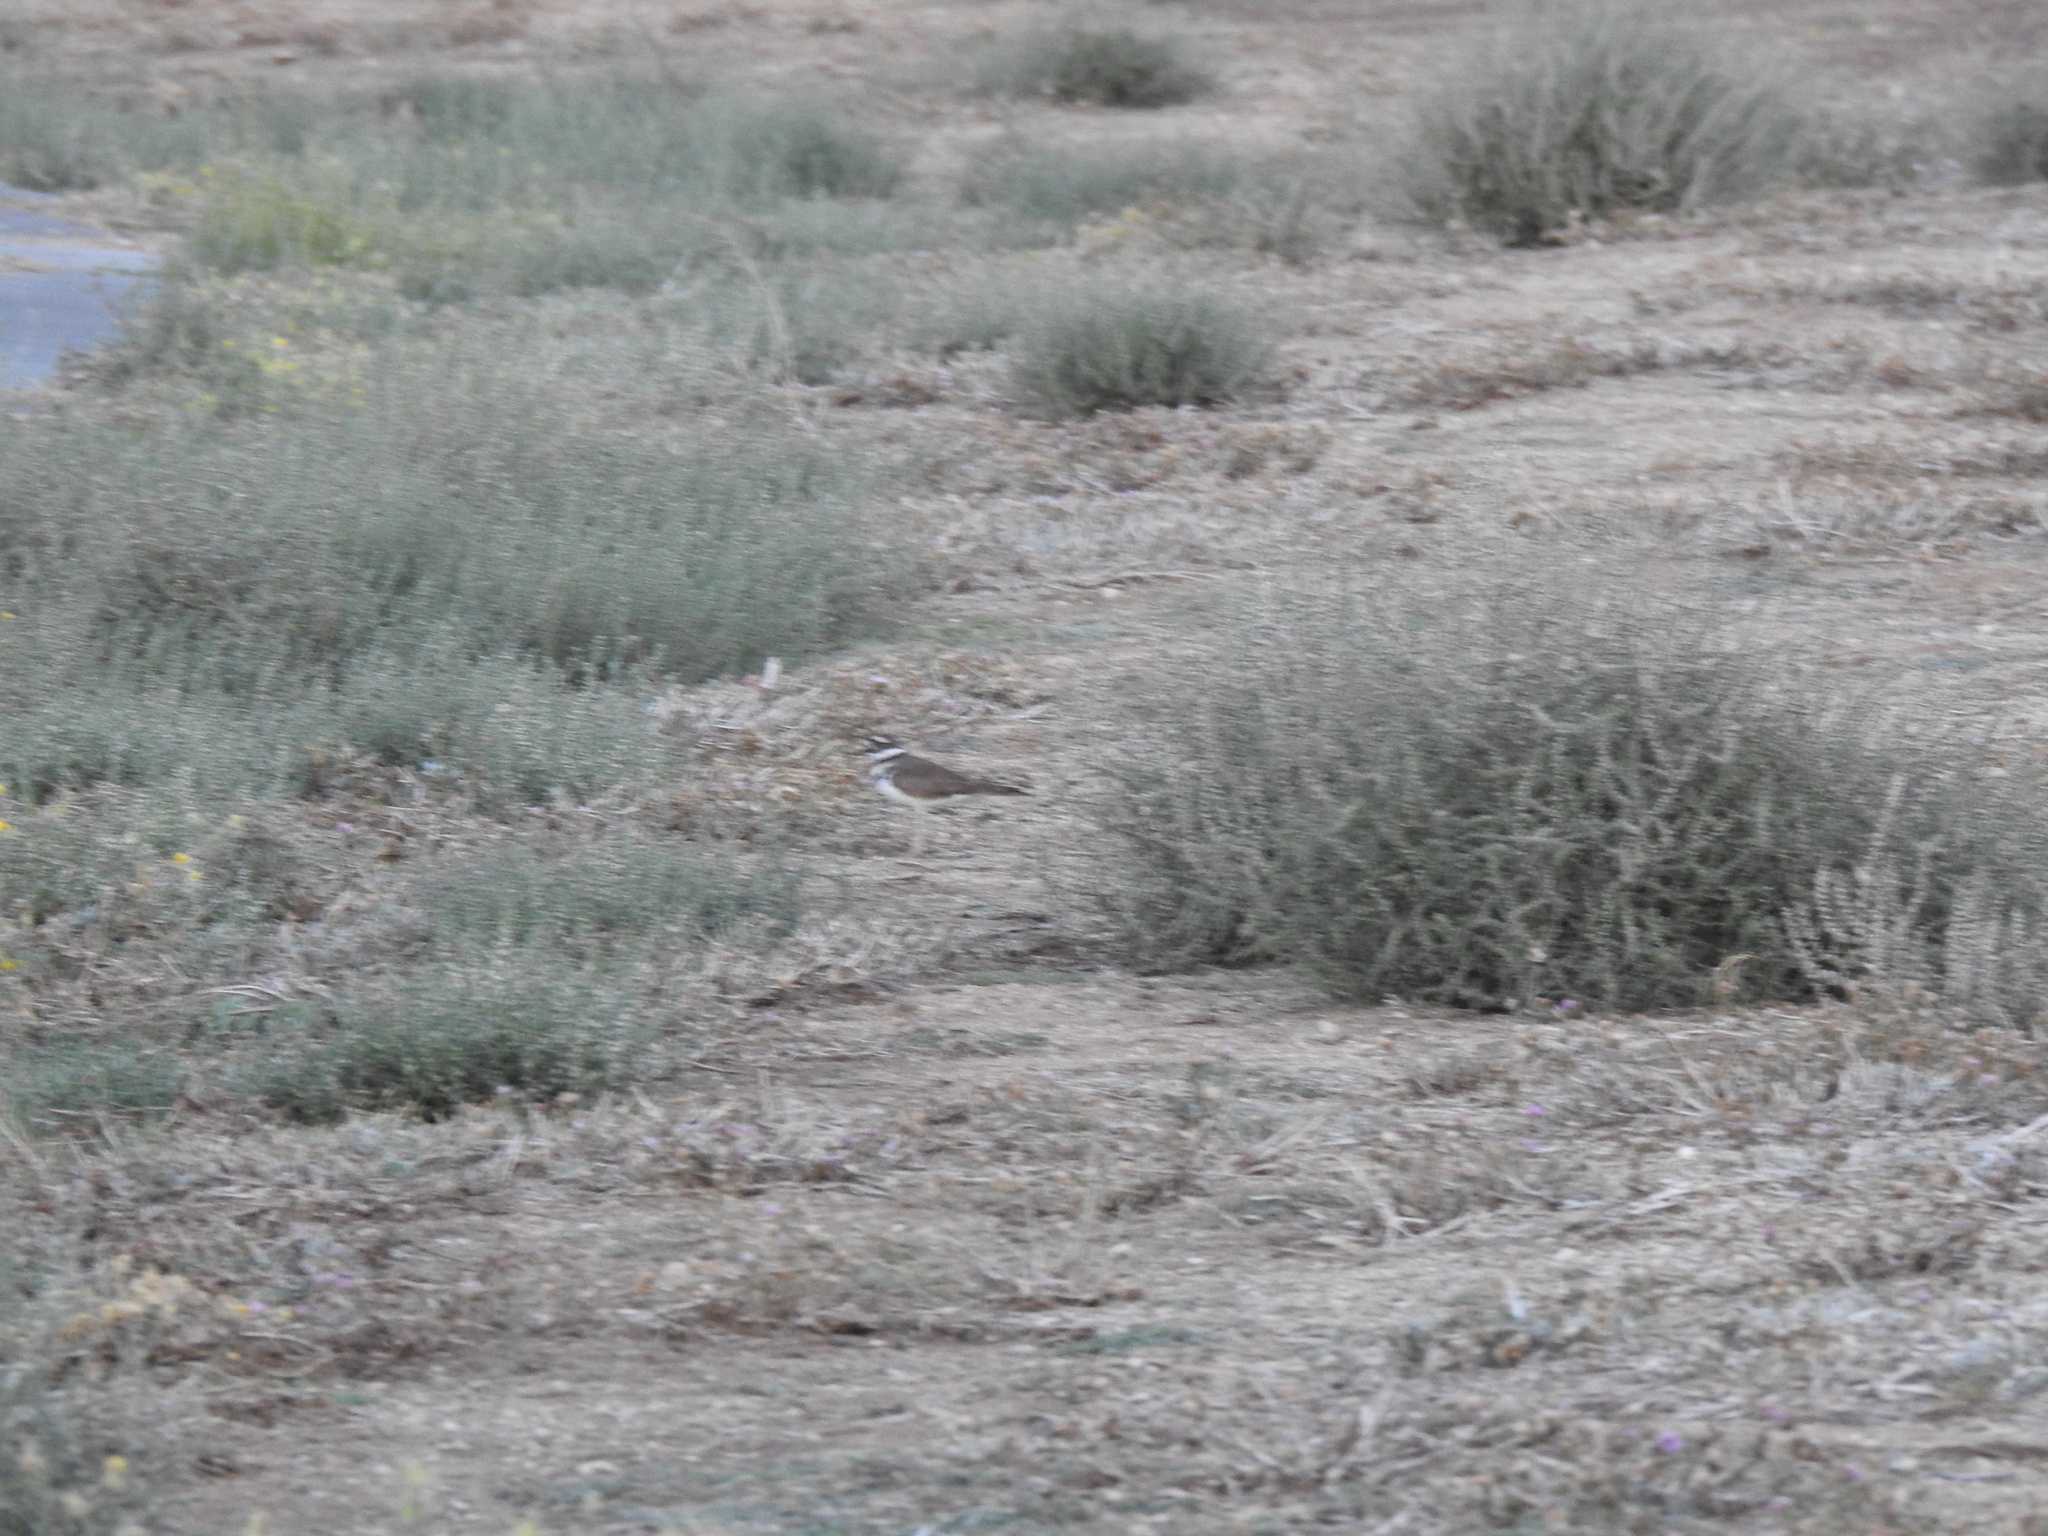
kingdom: Animalia
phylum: Chordata
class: Aves
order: Charadriiformes
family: Charadriidae
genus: Charadrius
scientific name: Charadrius vociferus
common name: Killdeer
